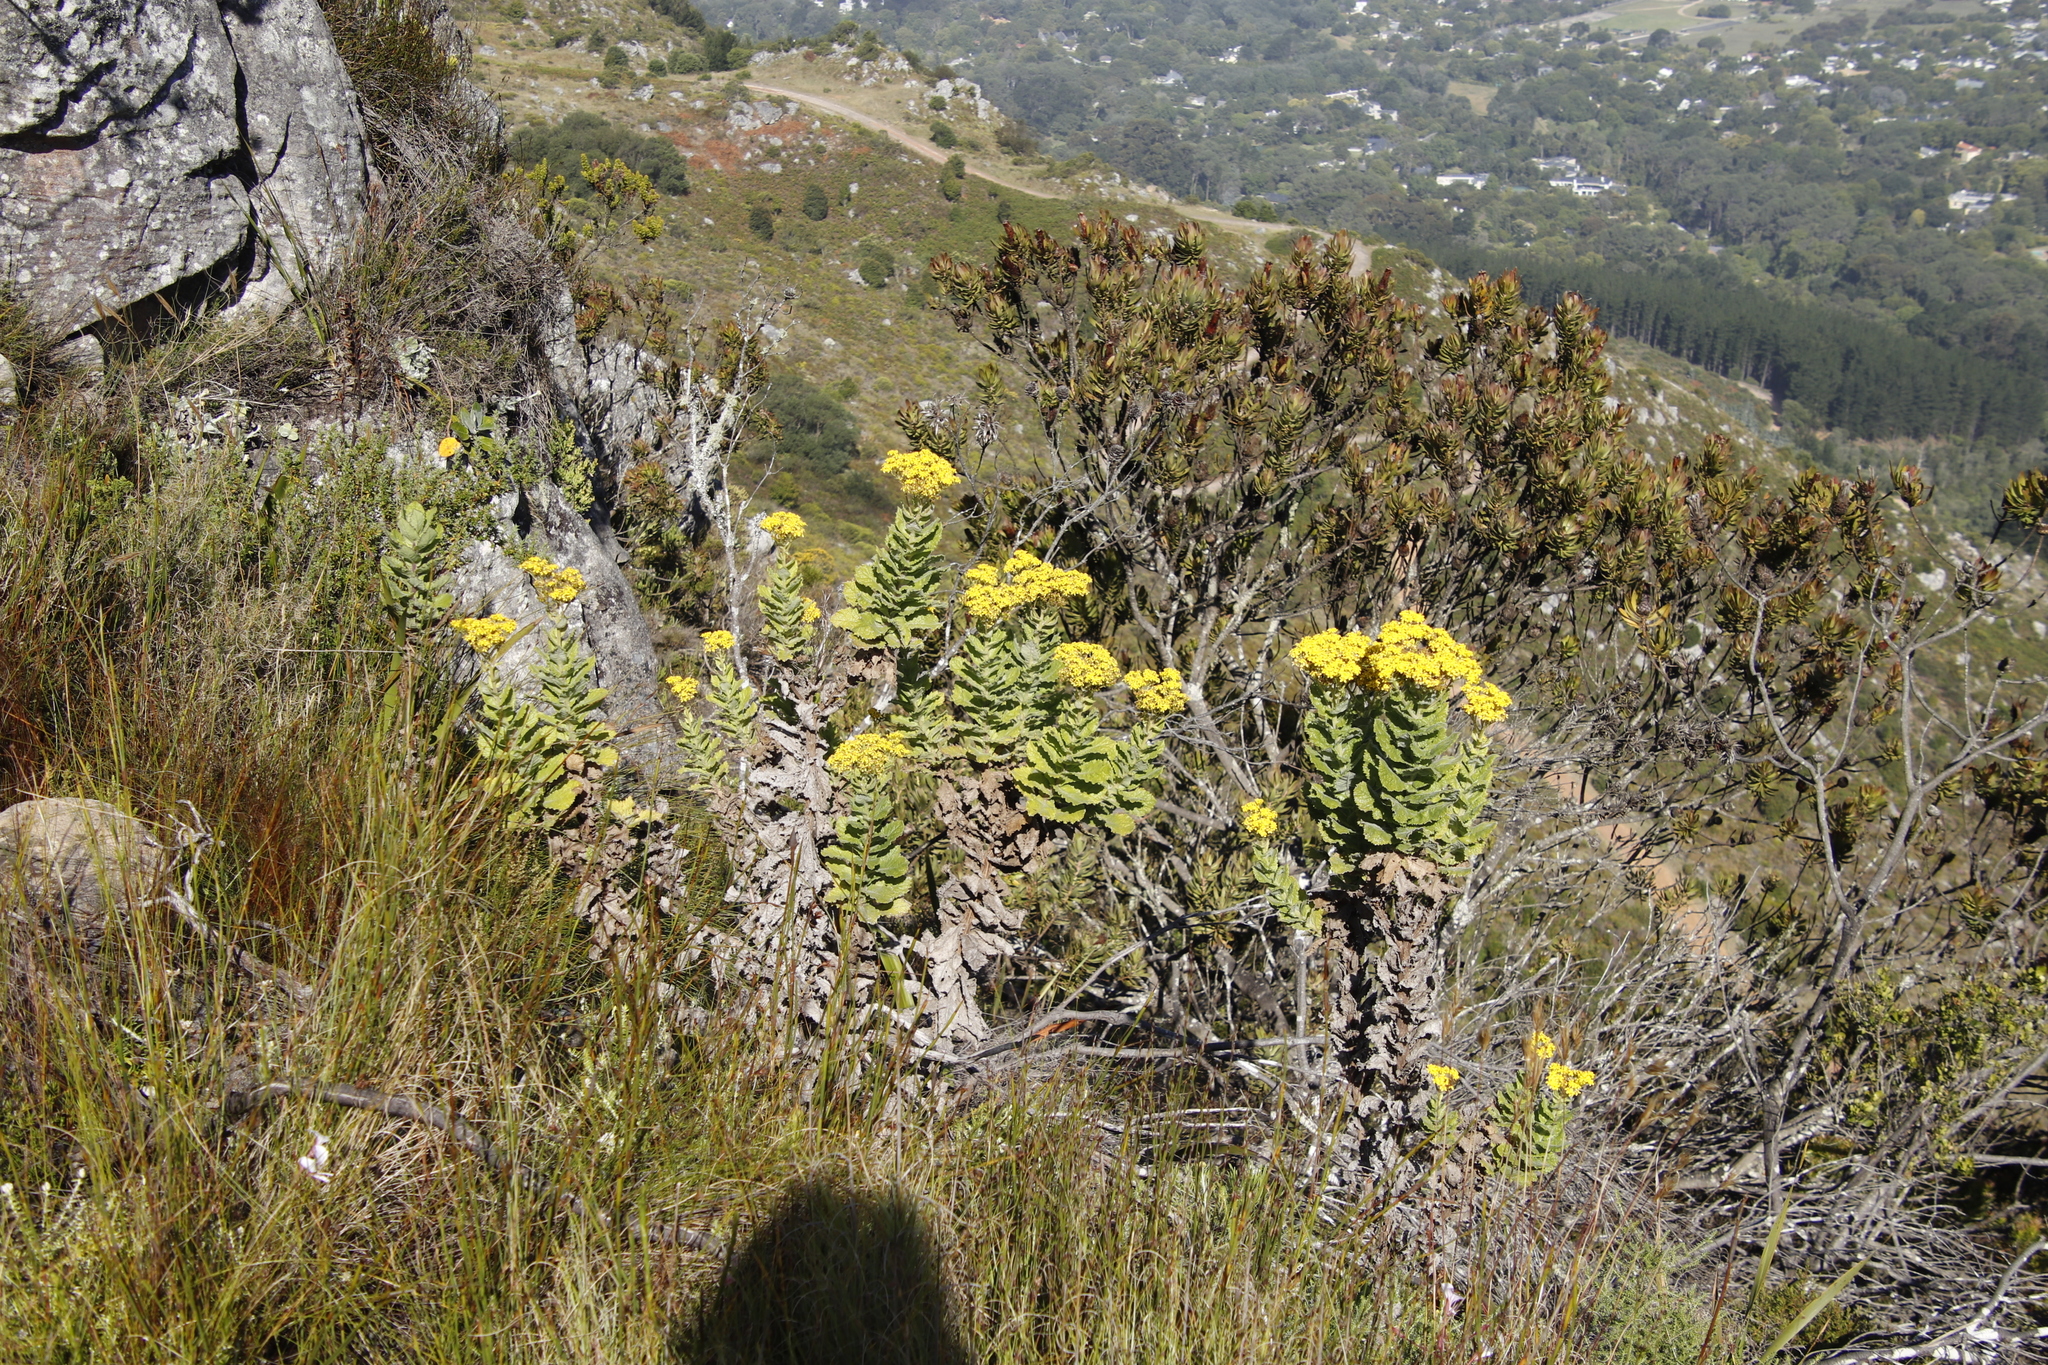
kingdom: Plantae
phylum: Tracheophyta
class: Magnoliopsida
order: Asterales
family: Asteraceae
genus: Senecio
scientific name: Senecio rigidus
